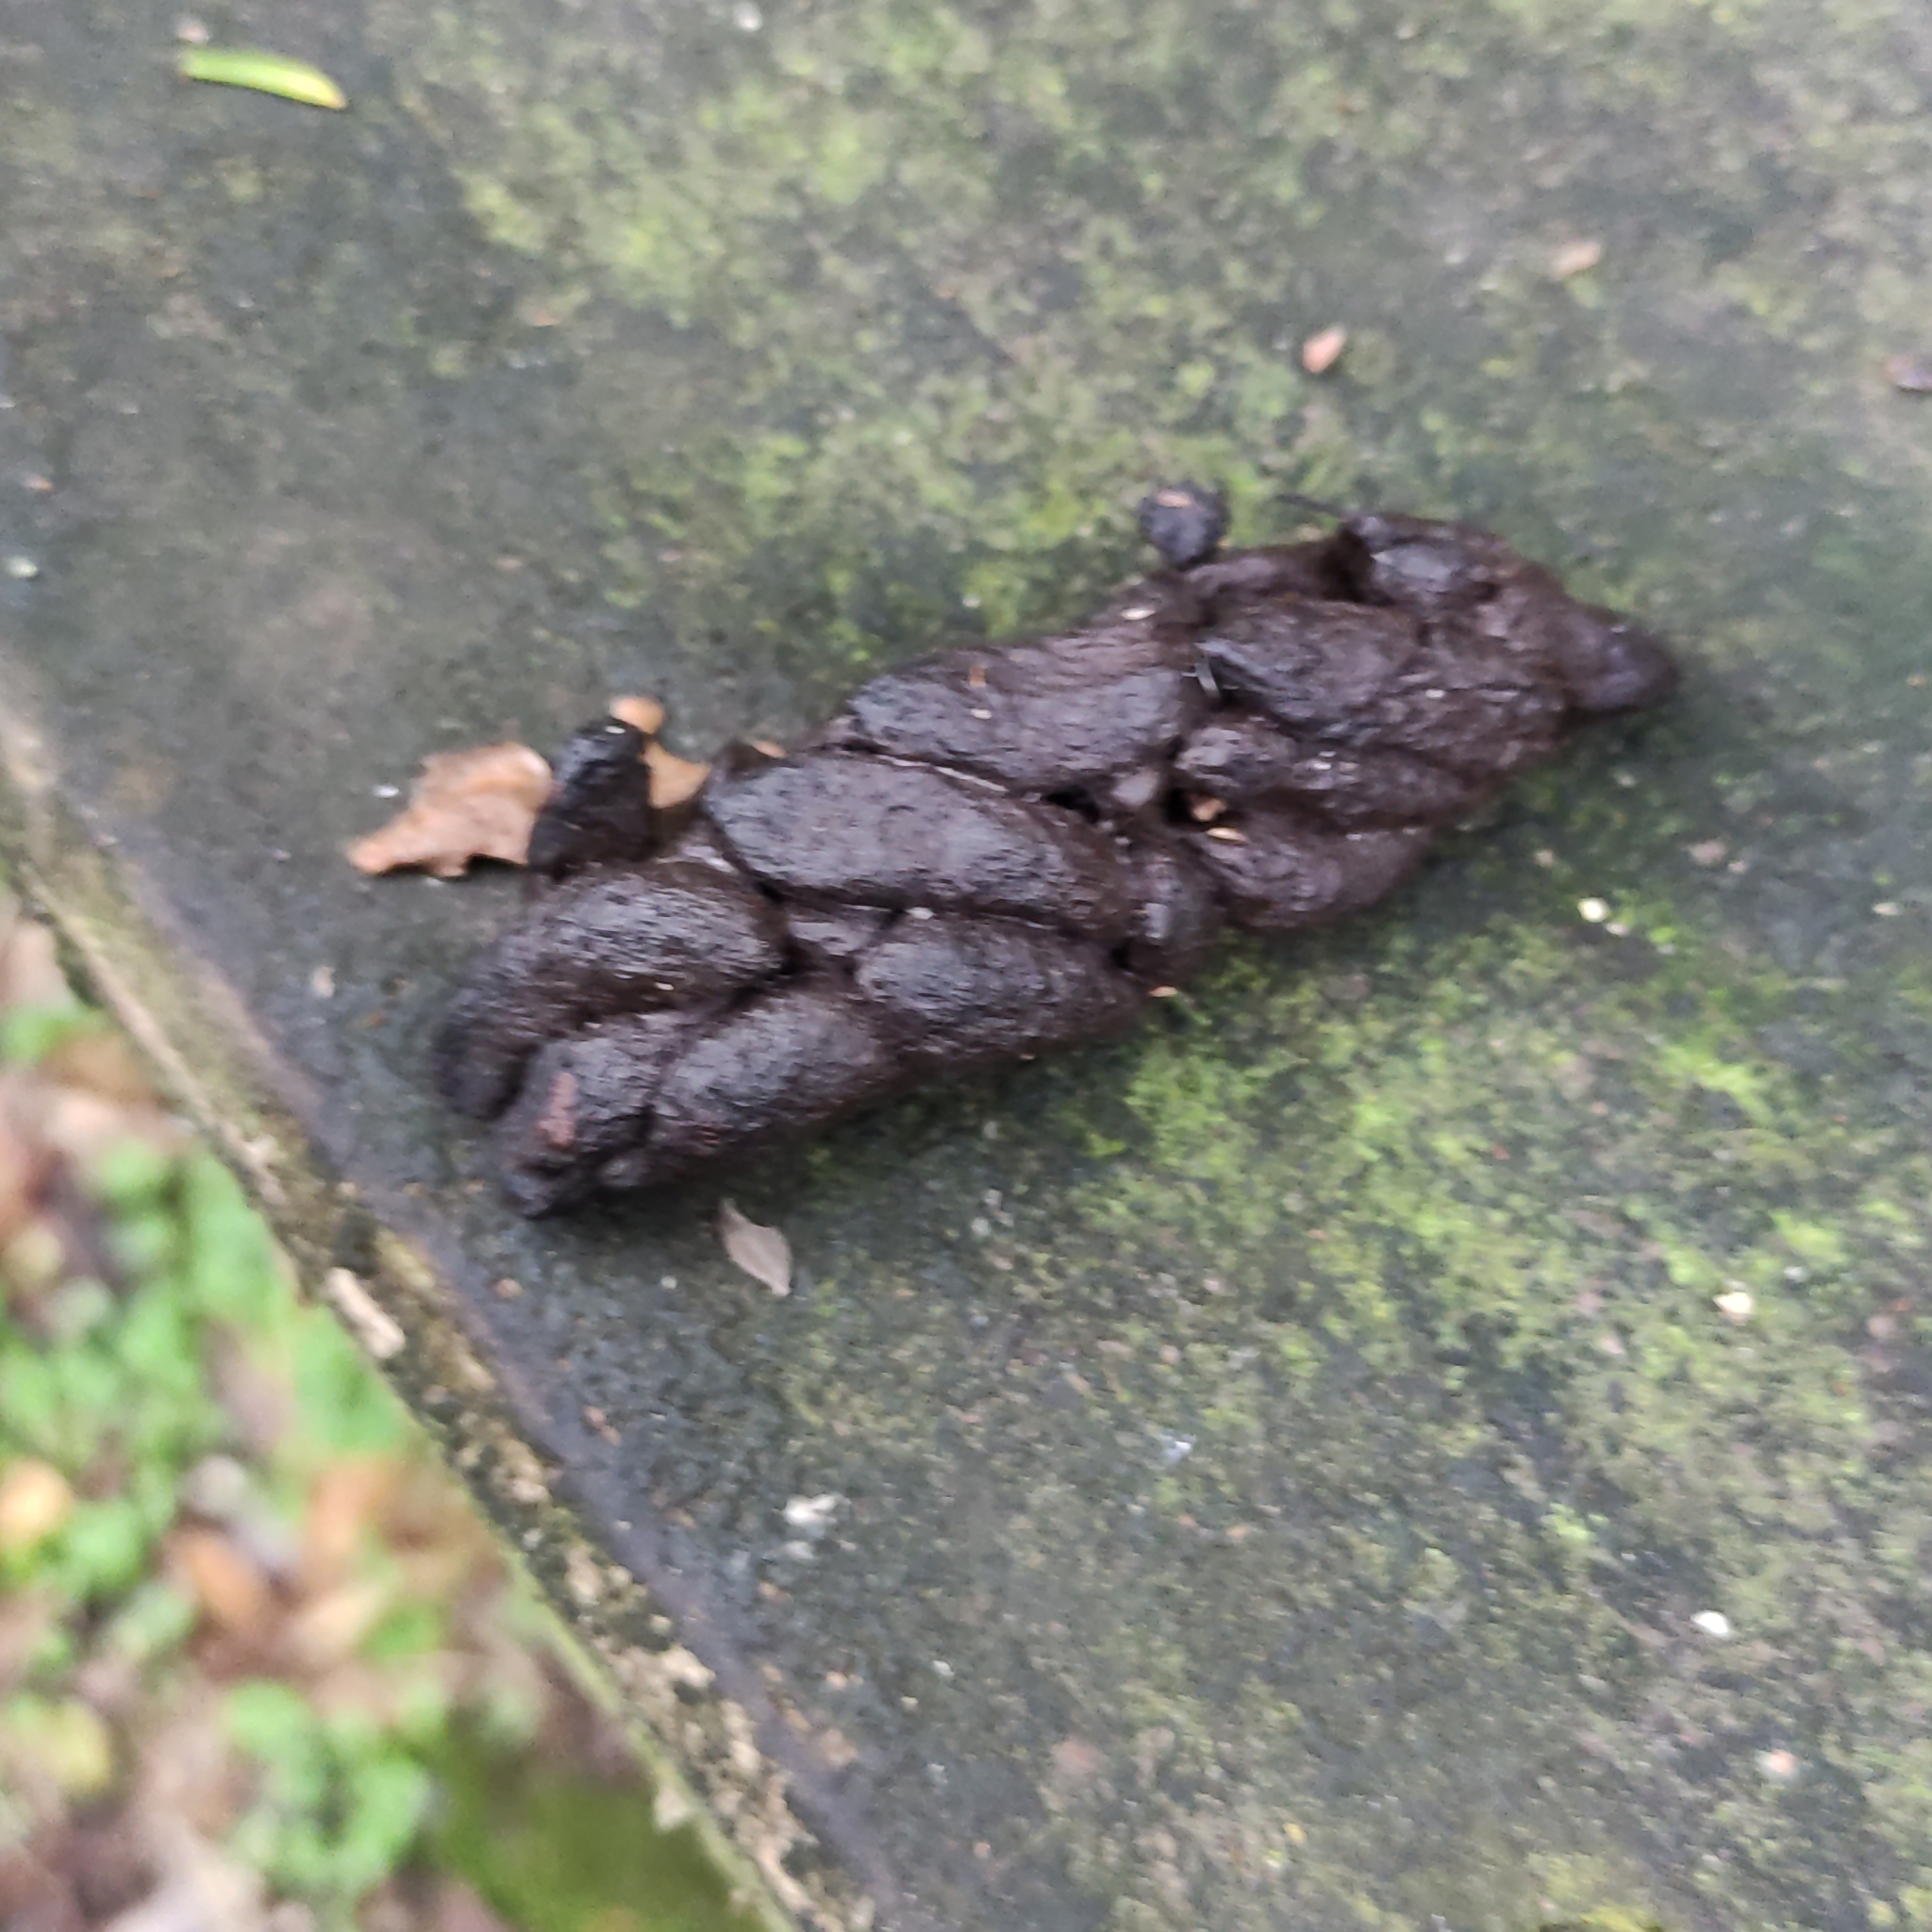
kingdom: Animalia
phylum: Chordata
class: Mammalia
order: Diprotodontia
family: Phalangeridae
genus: Trichosurus
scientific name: Trichosurus vulpecula
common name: Common brushtail
